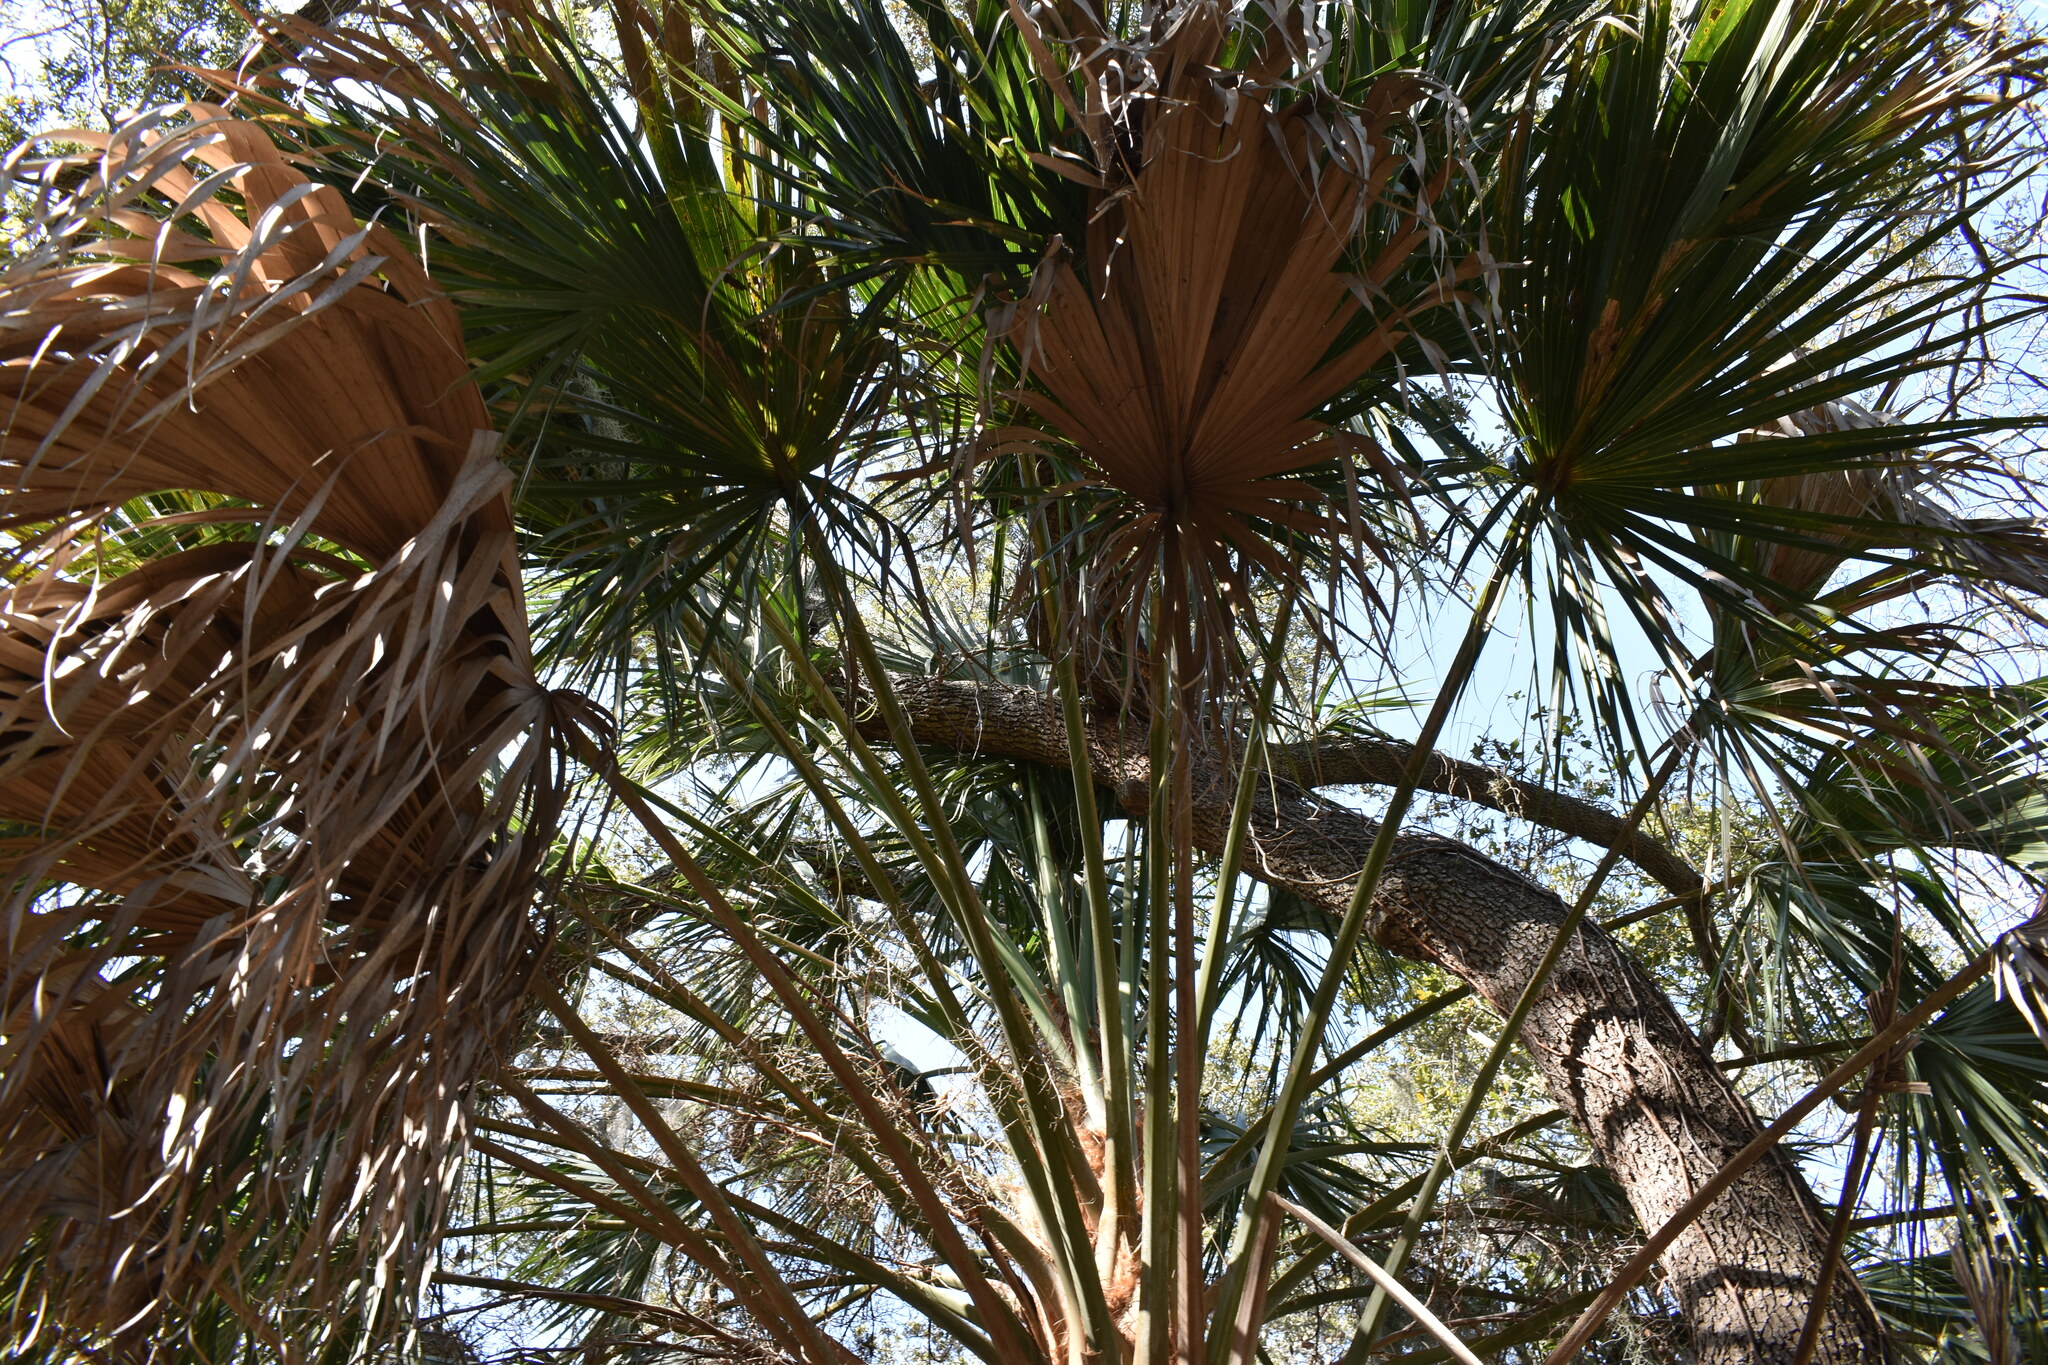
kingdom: Plantae
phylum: Tracheophyta
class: Liliopsida
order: Arecales
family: Arecaceae
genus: Sabal
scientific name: Sabal palmetto
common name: Blue palmetto
